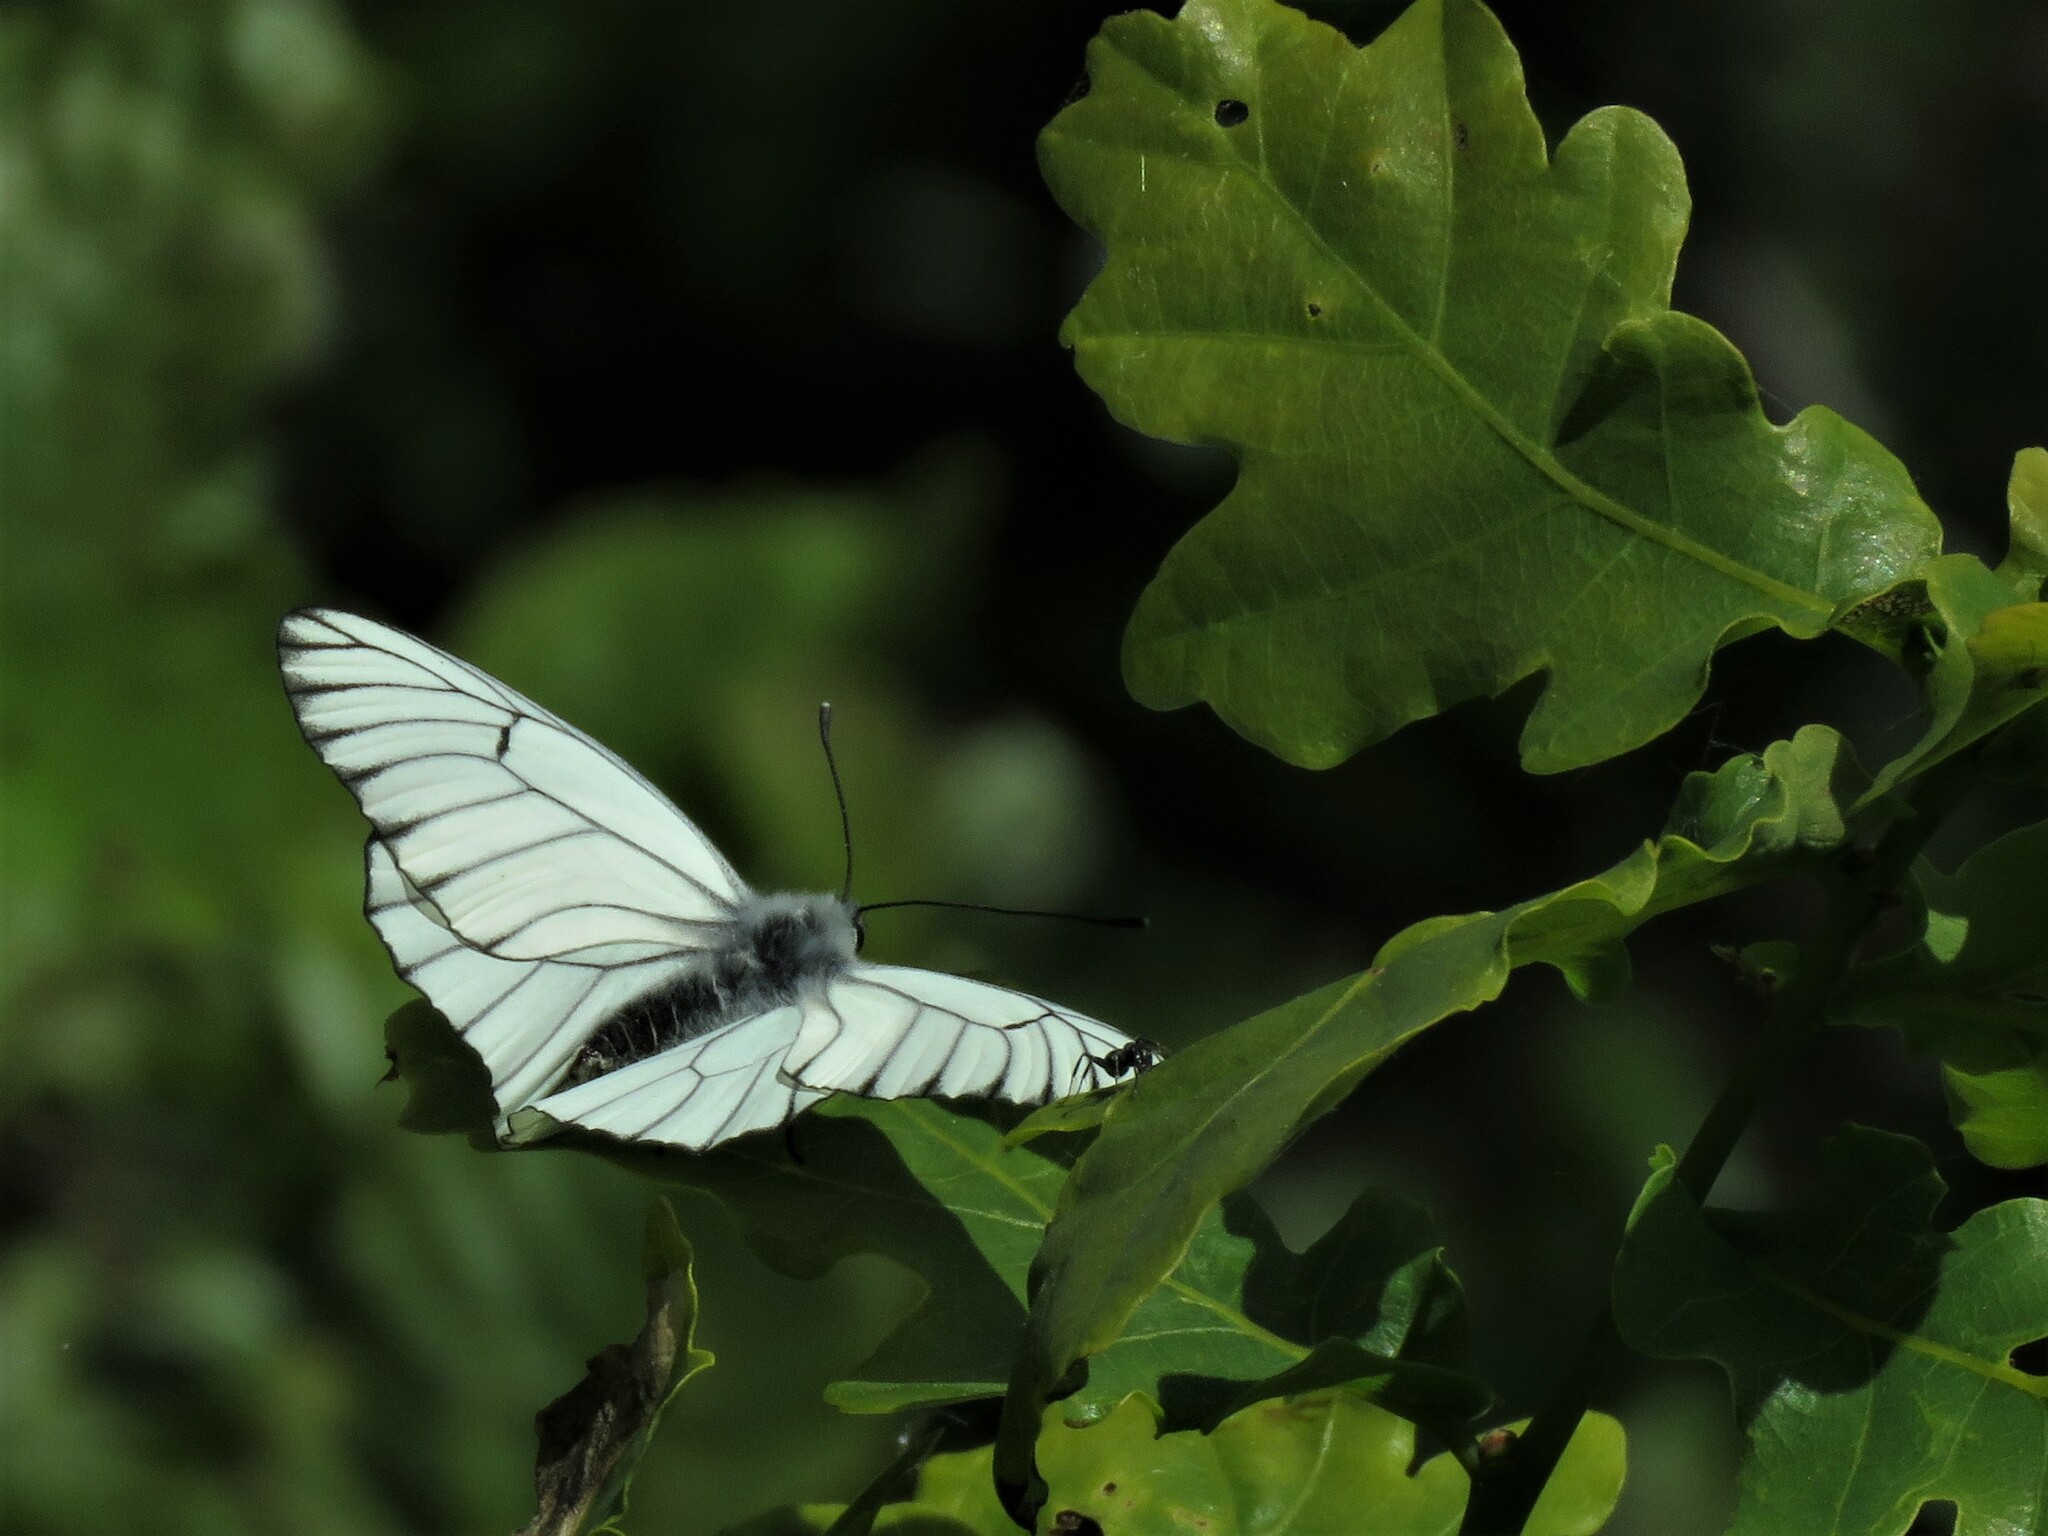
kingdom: Animalia
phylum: Arthropoda
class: Insecta
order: Lepidoptera
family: Pieridae
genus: Aporia
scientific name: Aporia crataegi
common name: Black-veined white
